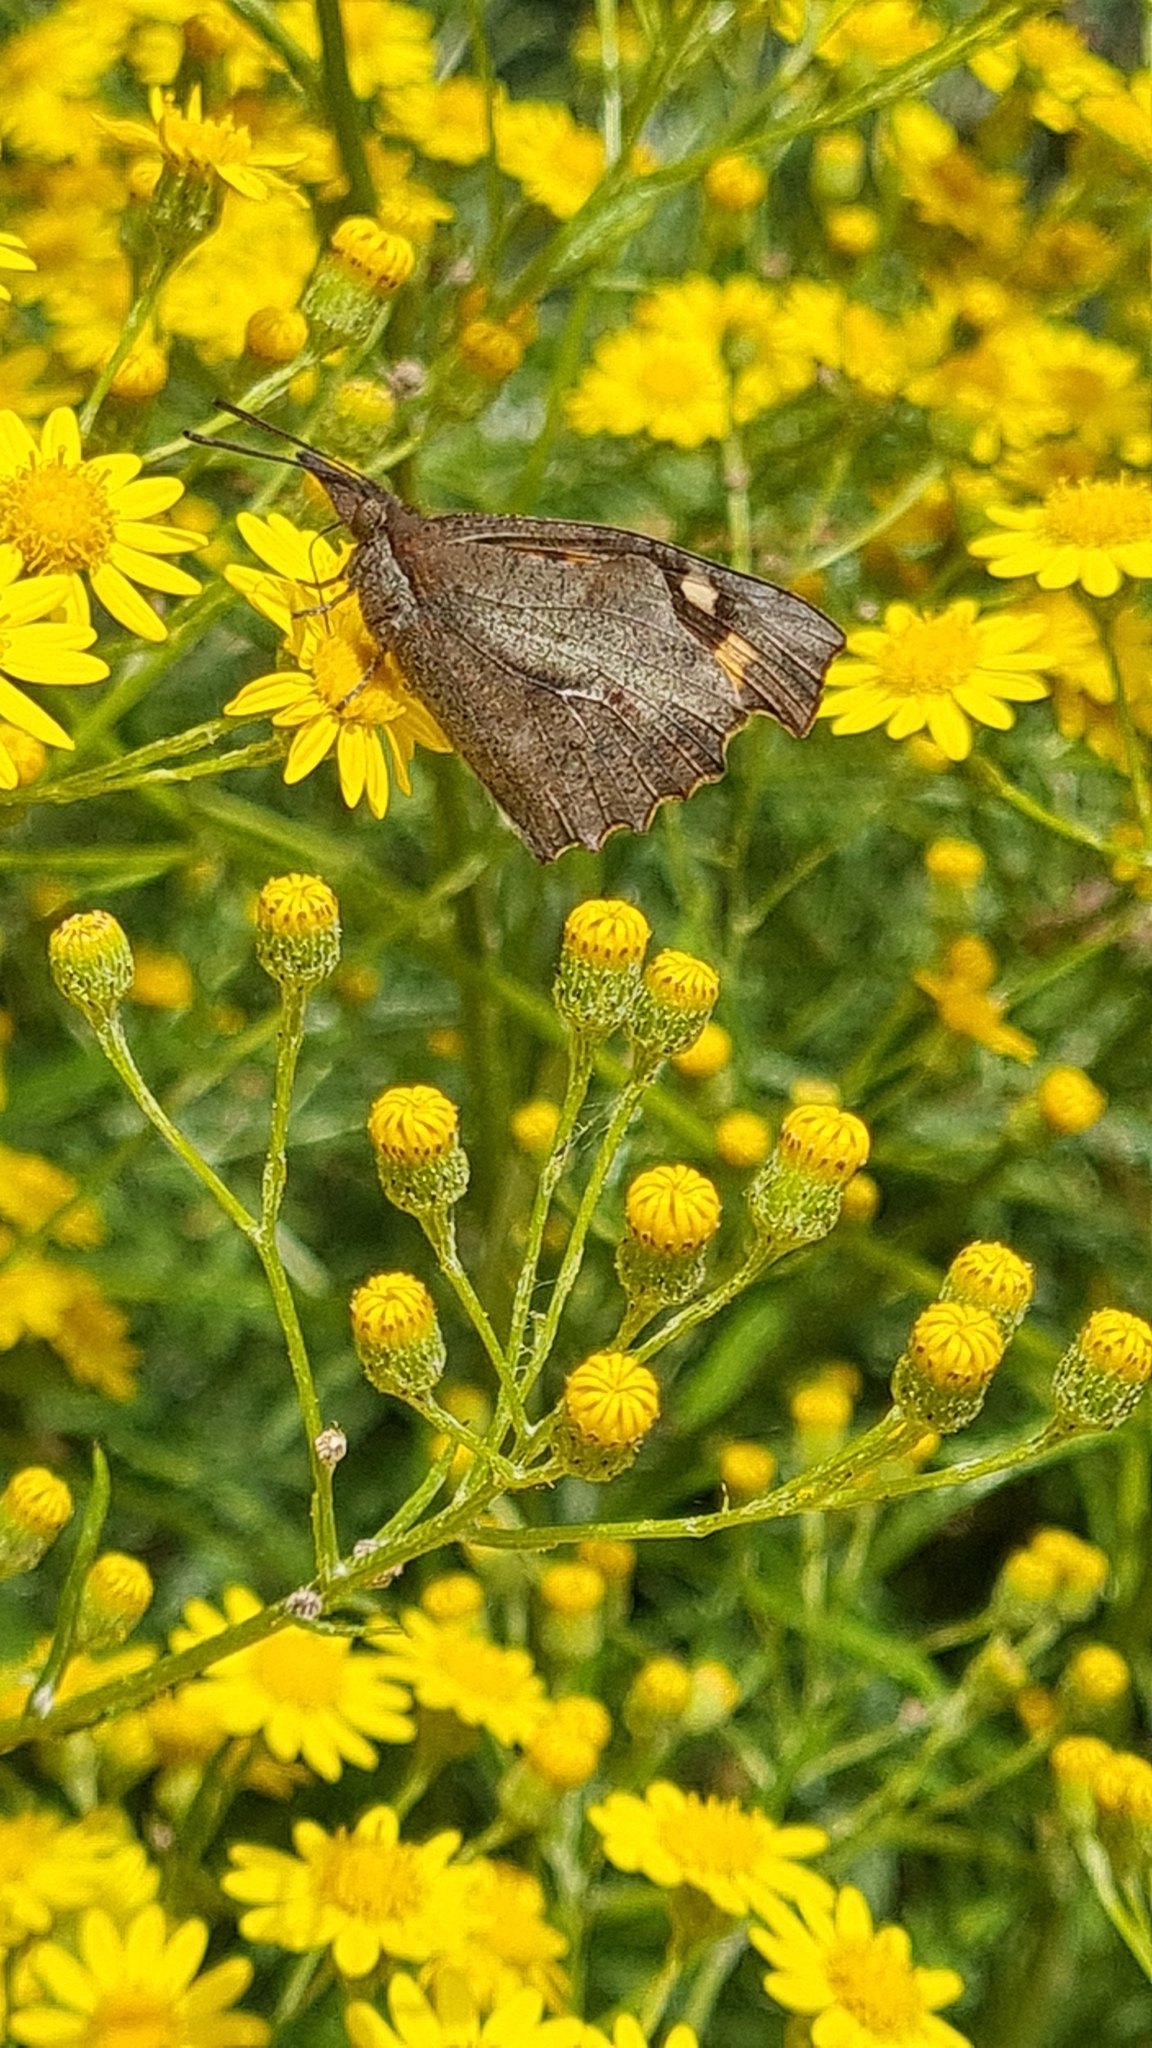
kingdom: Animalia
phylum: Arthropoda
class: Insecta
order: Lepidoptera
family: Nymphalidae
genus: Libythea
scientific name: Libythea celtis
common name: Nettle-tree butterfly
